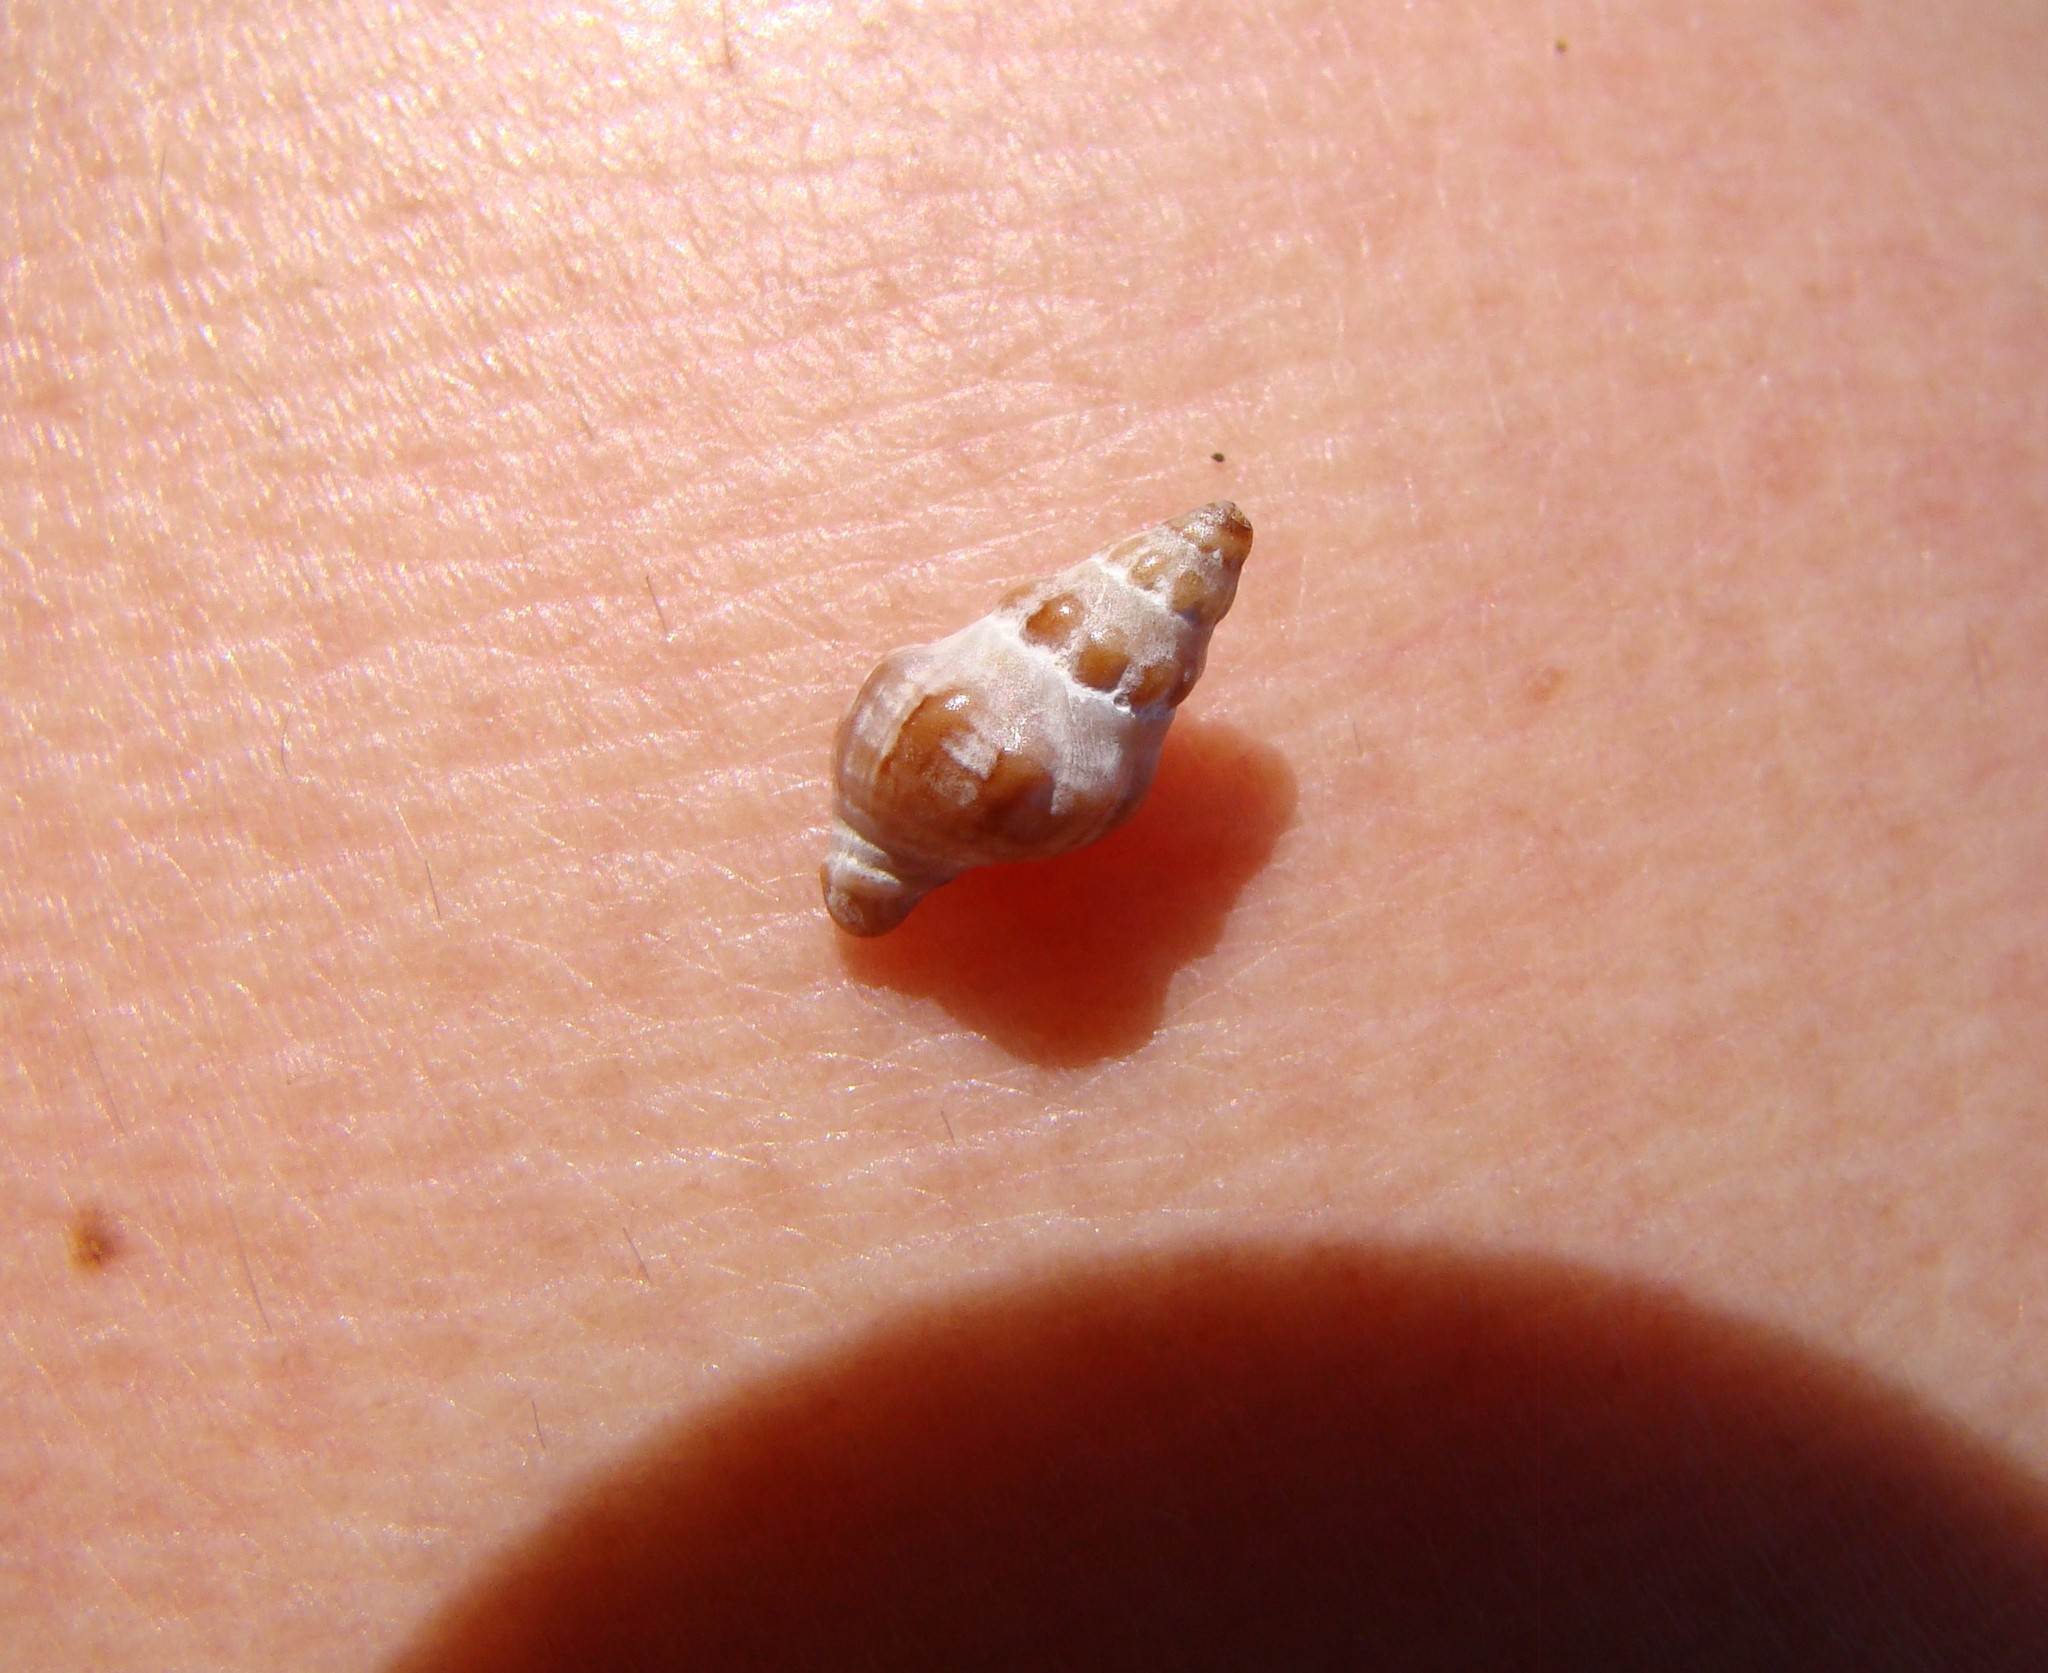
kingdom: Animalia
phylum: Mollusca
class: Gastropoda
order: Neogastropoda
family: Muricidae
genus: Lamellitrophon
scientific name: Lamellitrophon traversi
